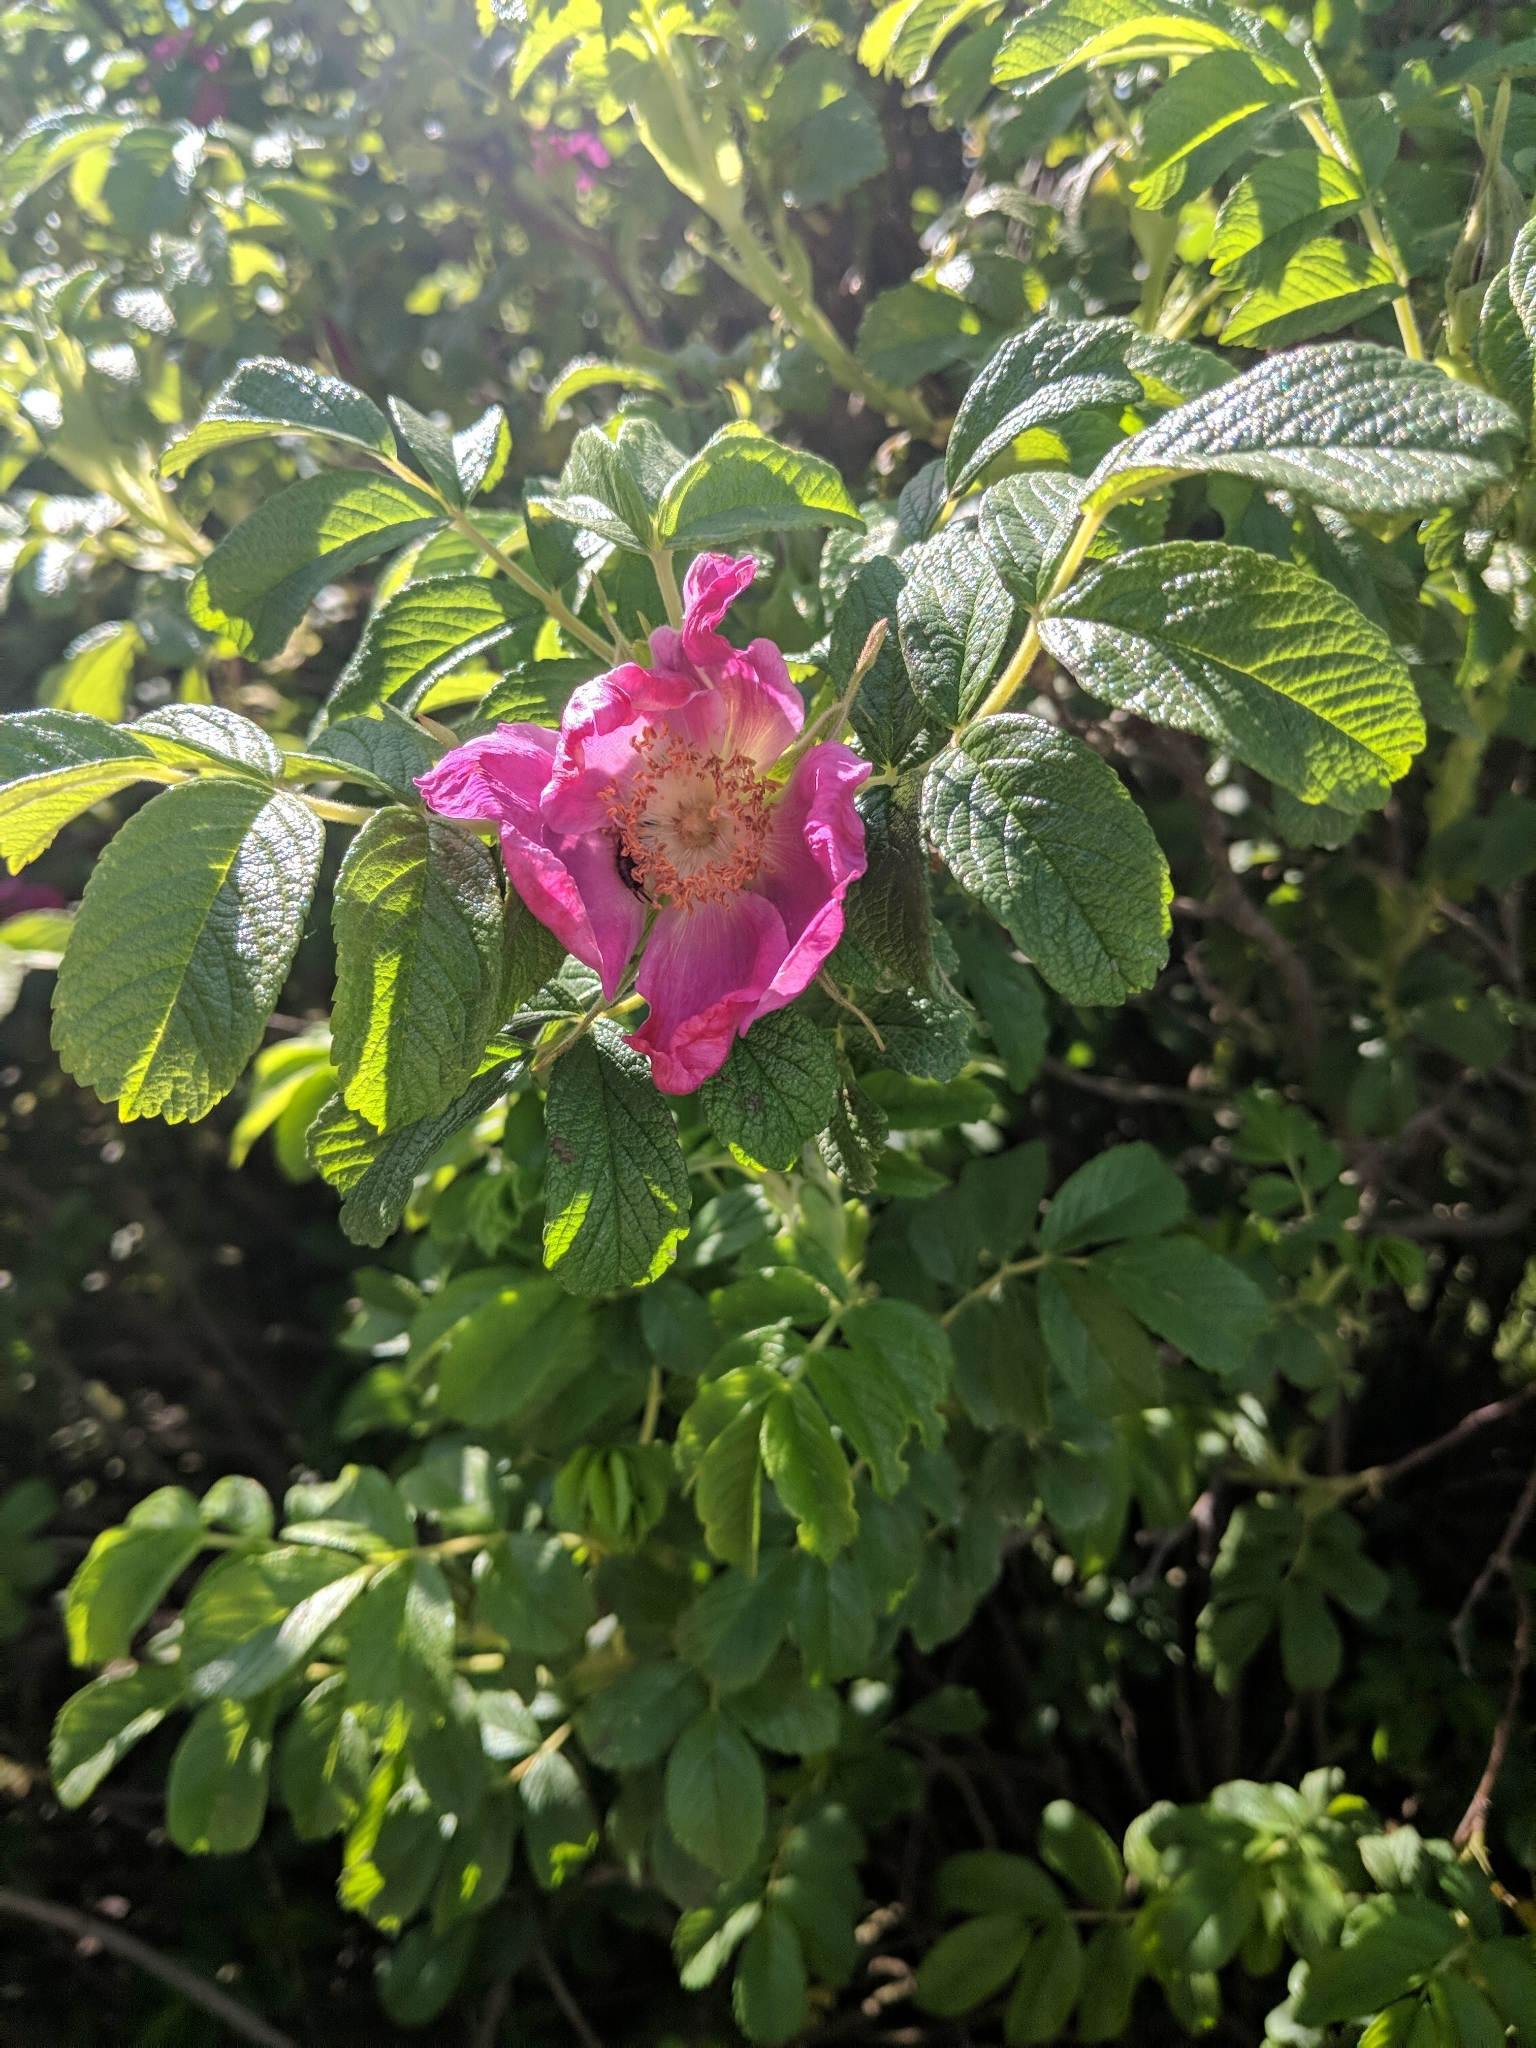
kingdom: Plantae
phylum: Tracheophyta
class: Magnoliopsida
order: Rosales
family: Rosaceae
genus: Rosa
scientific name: Rosa rugosa
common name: Japanese rose
